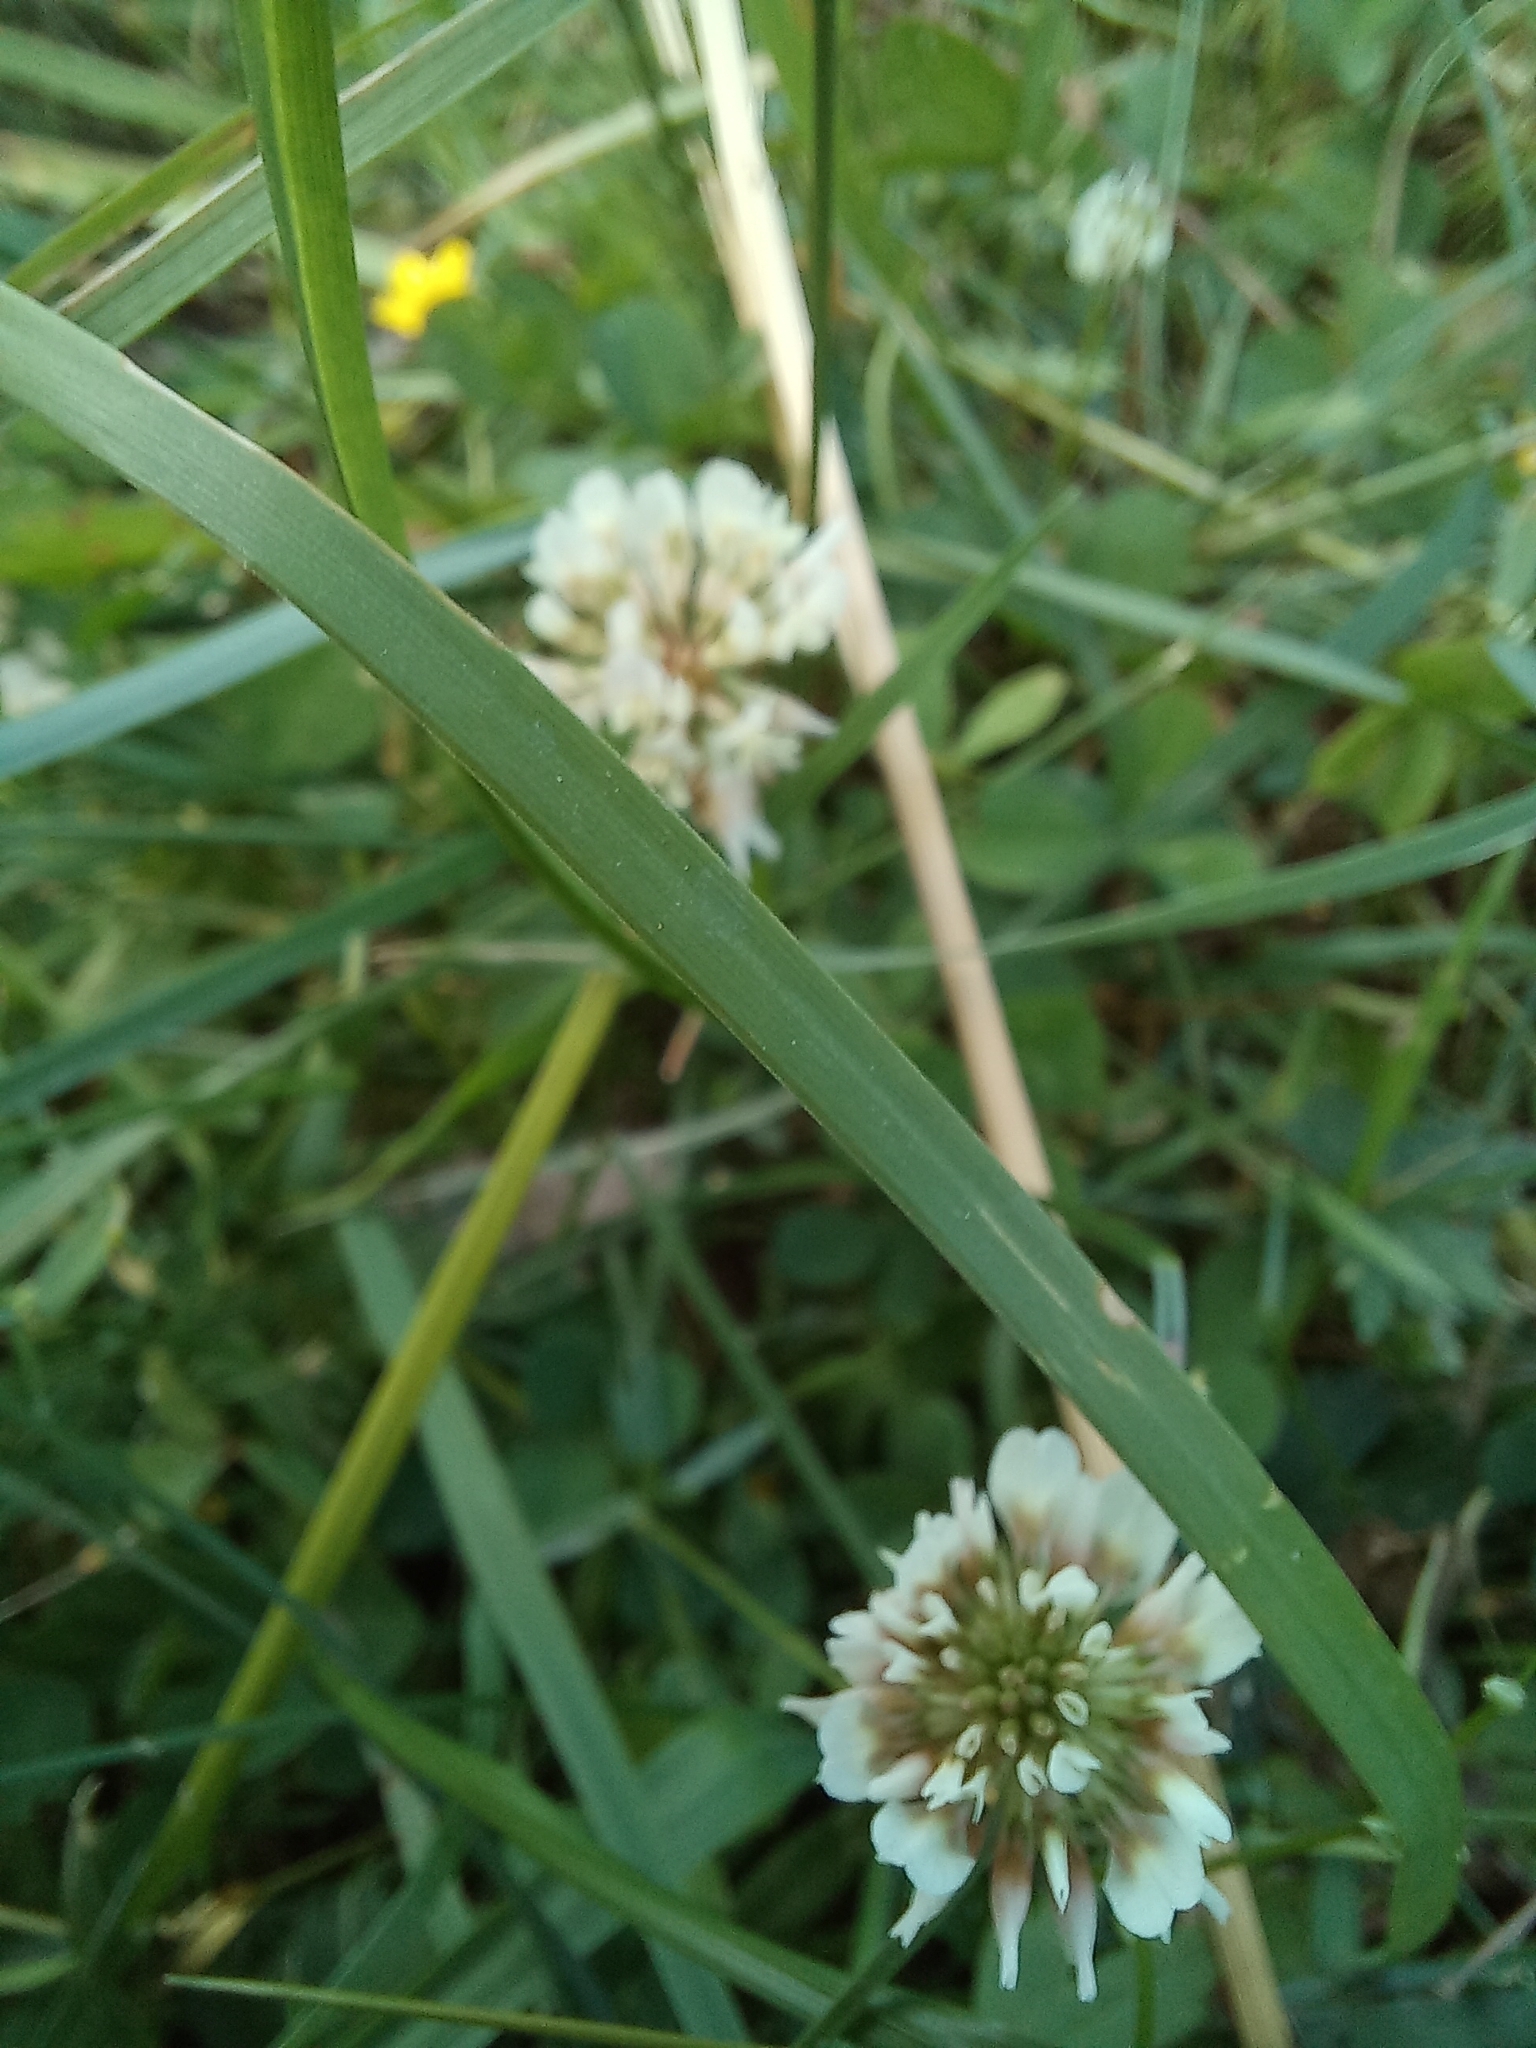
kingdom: Plantae
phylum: Tracheophyta
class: Magnoliopsida
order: Fabales
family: Fabaceae
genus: Trifolium
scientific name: Trifolium repens
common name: White clover
